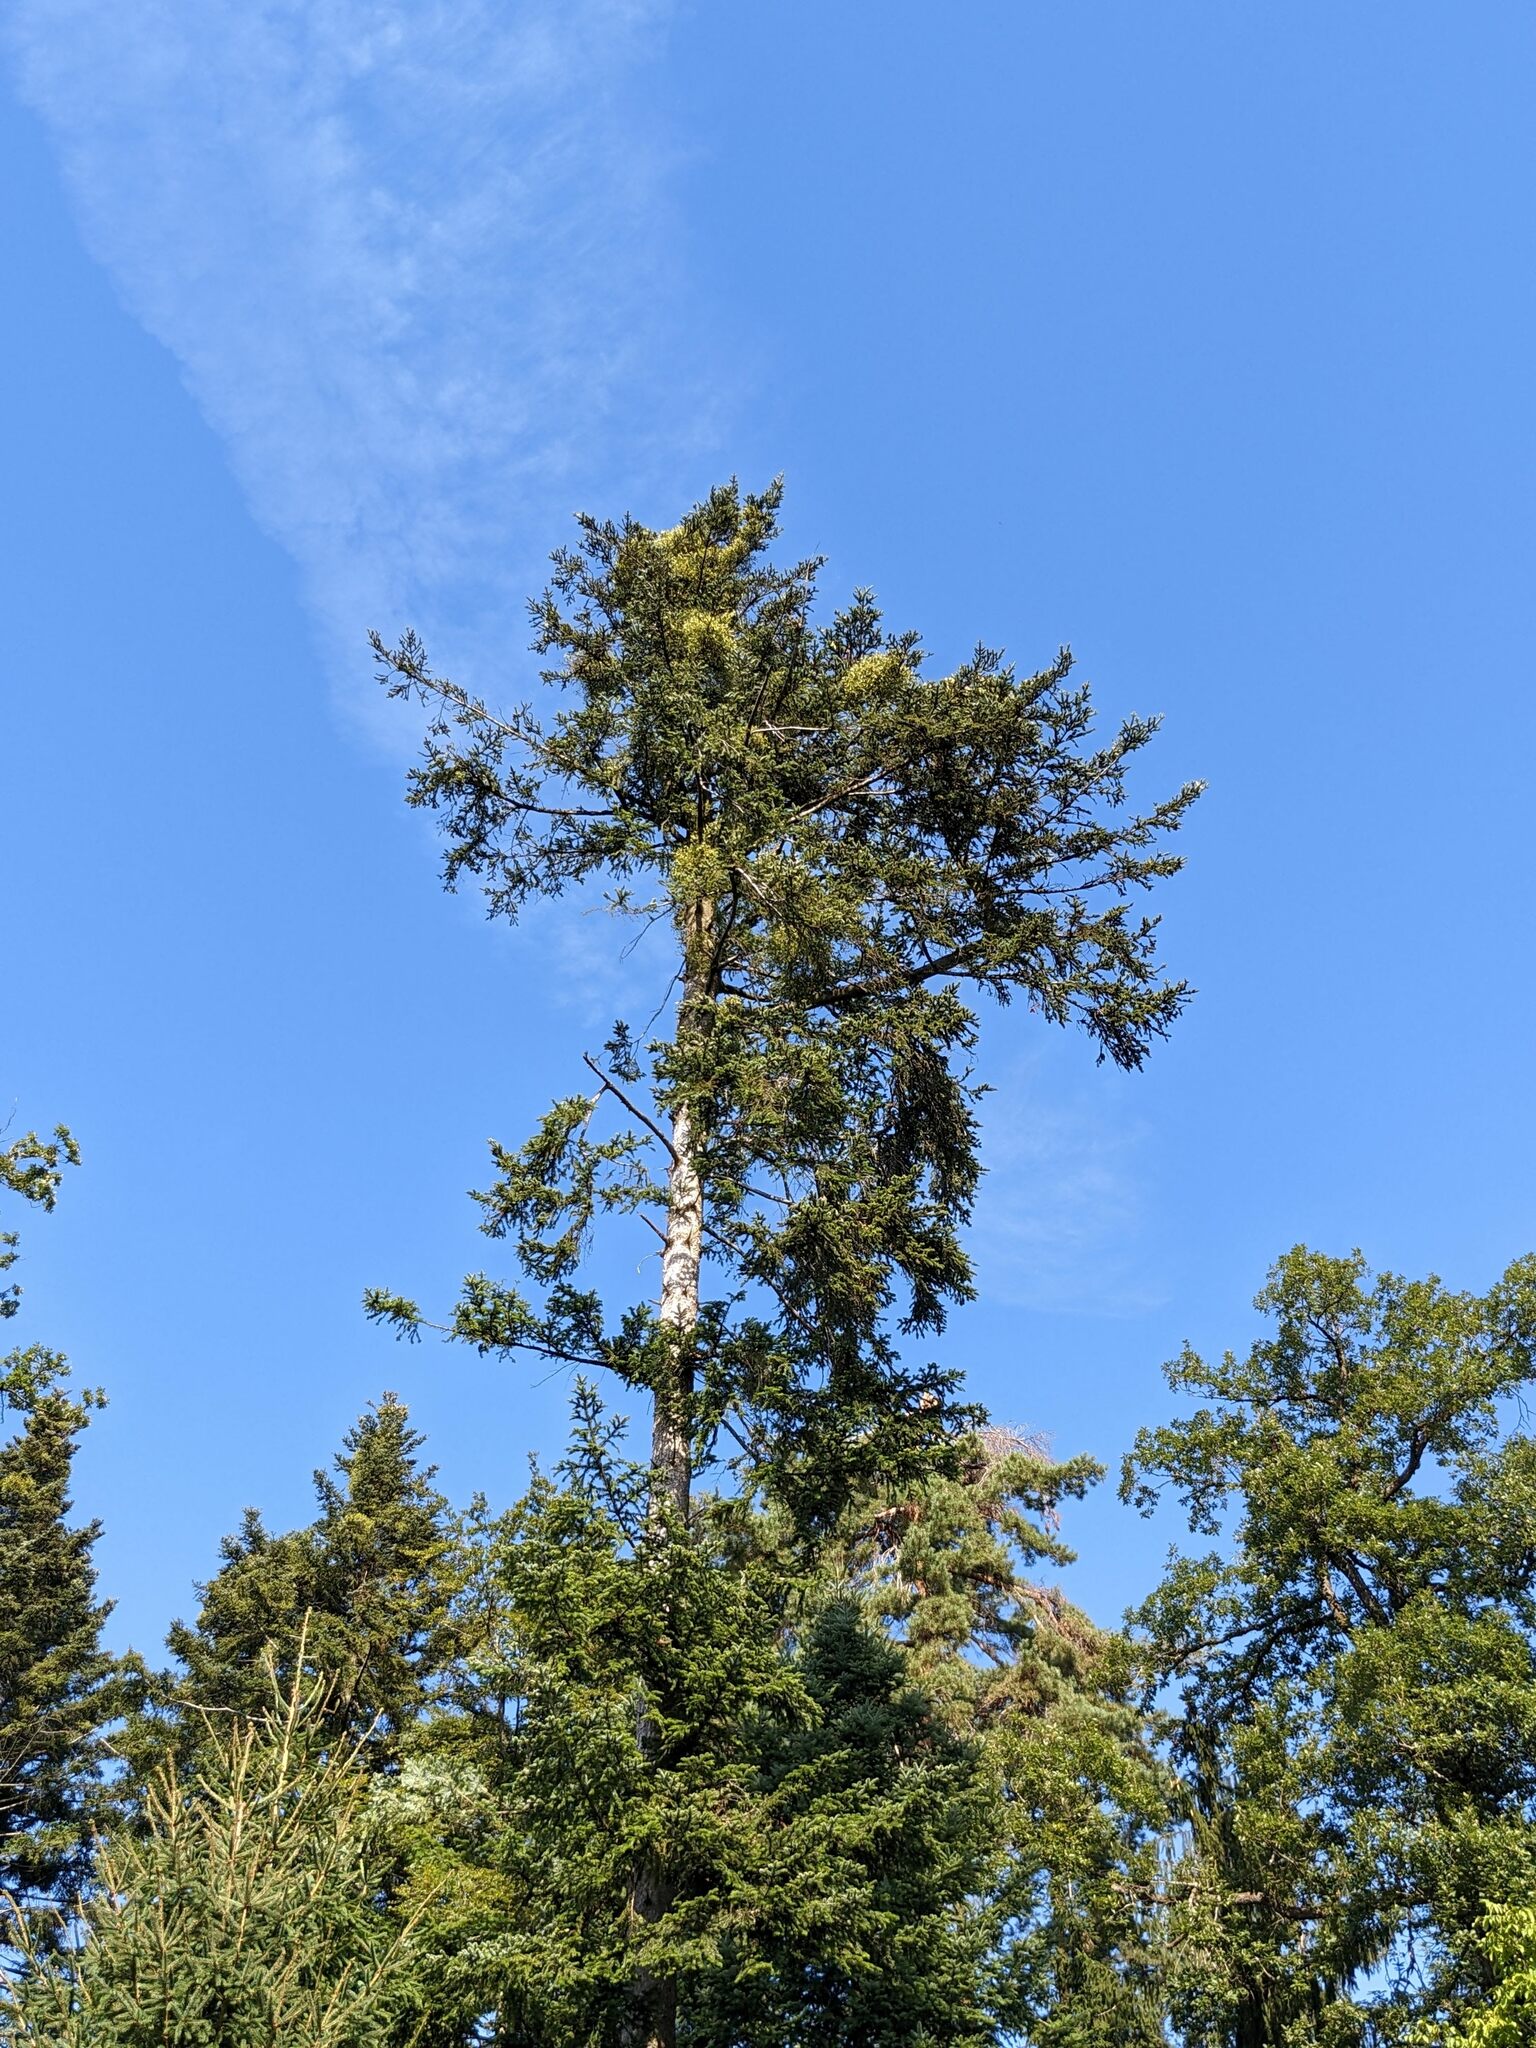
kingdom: Plantae
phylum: Tracheophyta
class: Pinopsida
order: Pinales
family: Pinaceae
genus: Abies
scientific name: Abies alba
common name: Silver fir
